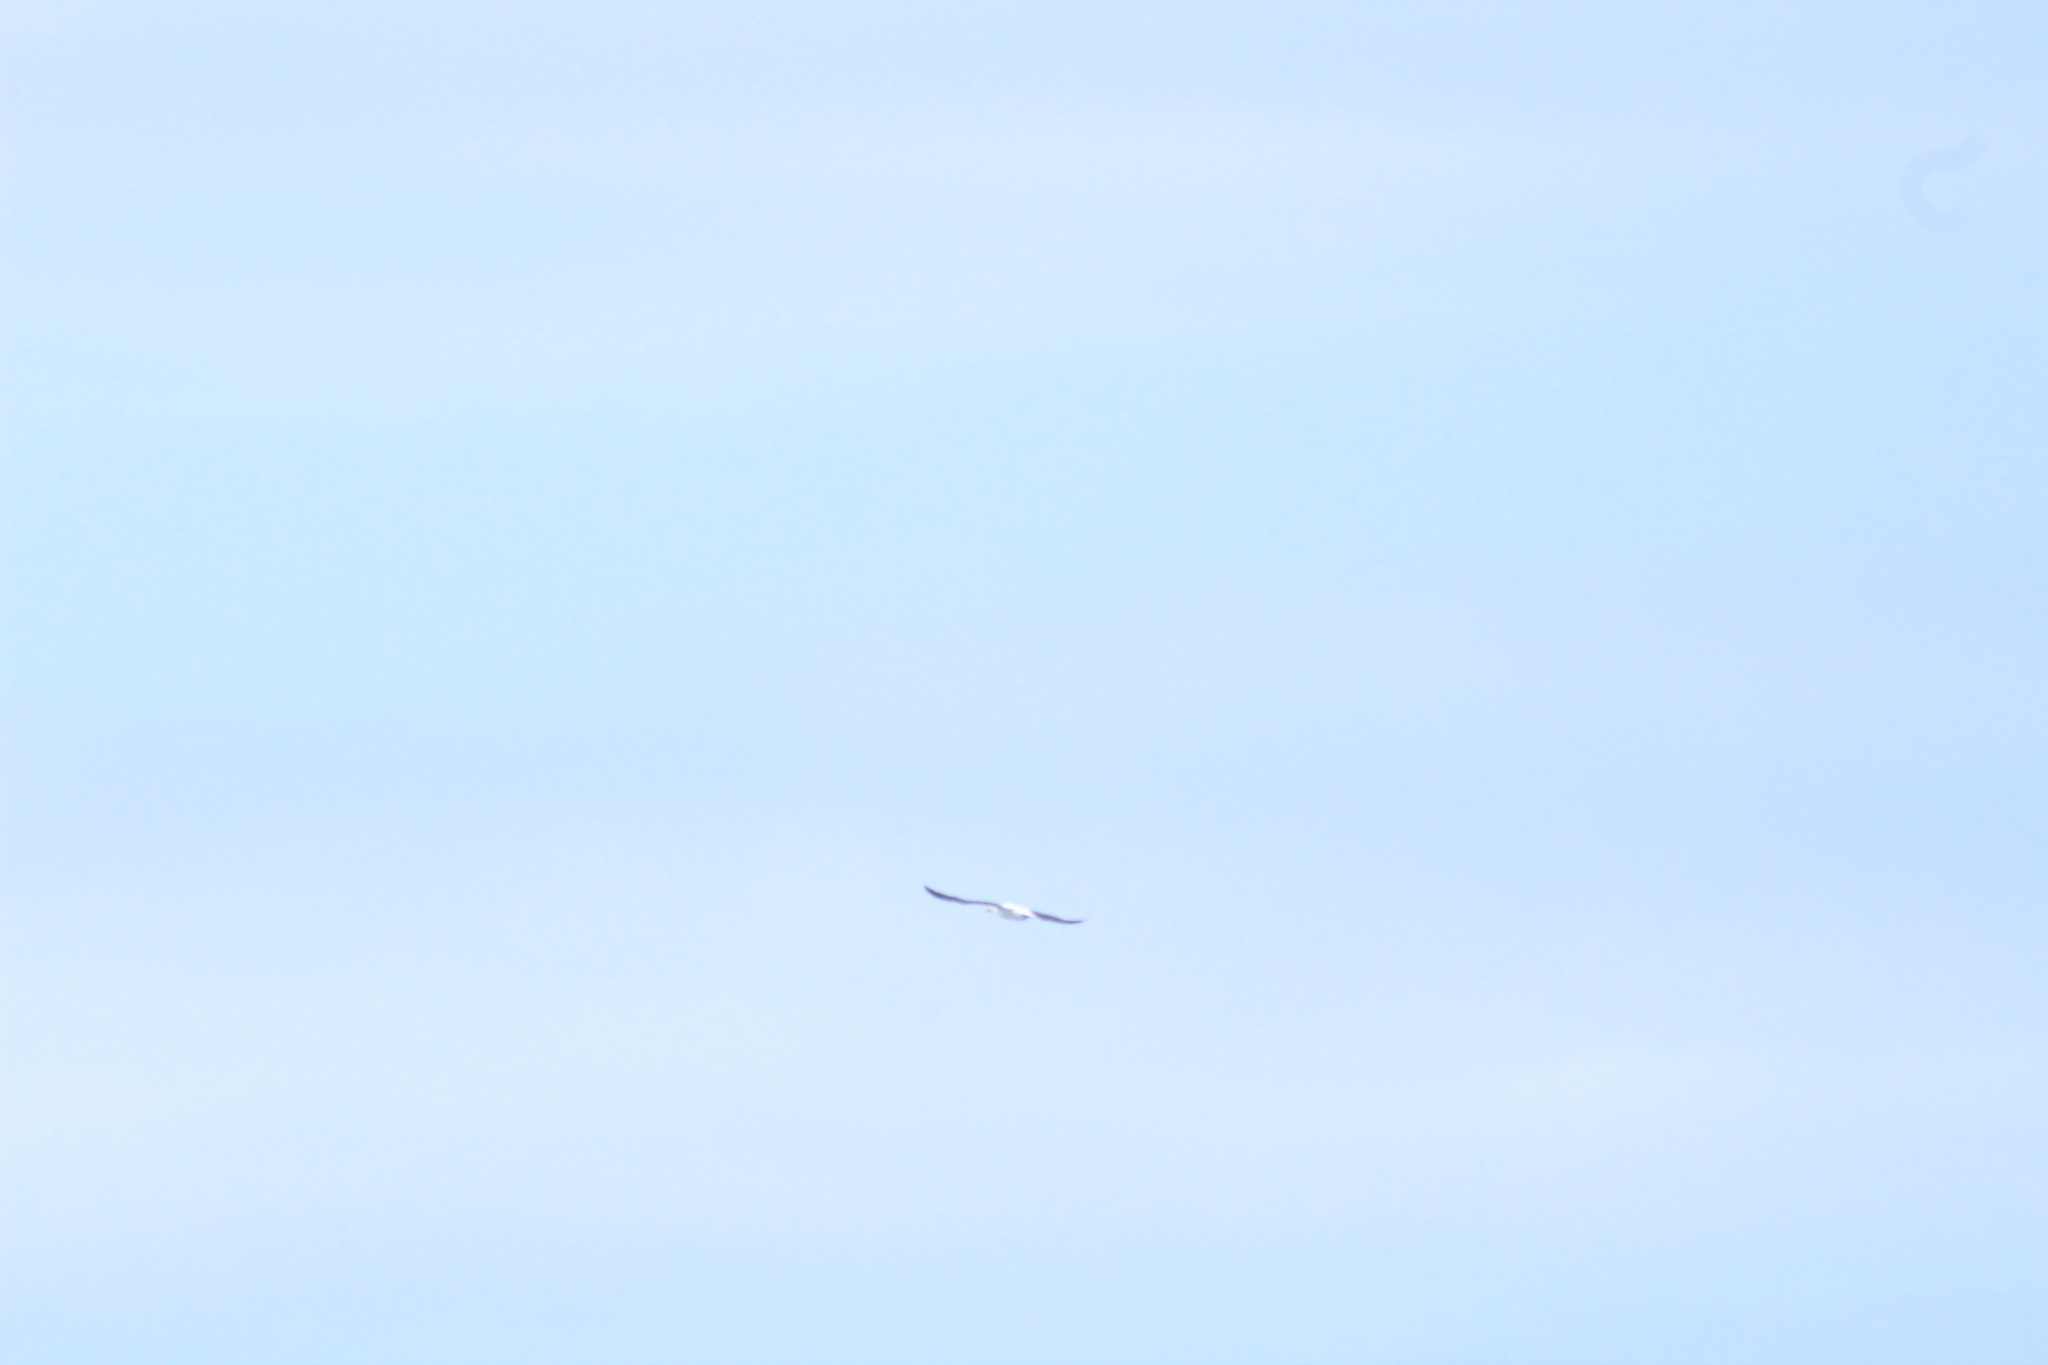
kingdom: Animalia
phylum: Chordata
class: Aves
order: Suliformes
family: Sulidae
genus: Sula
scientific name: Sula granti
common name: Nazca booby
